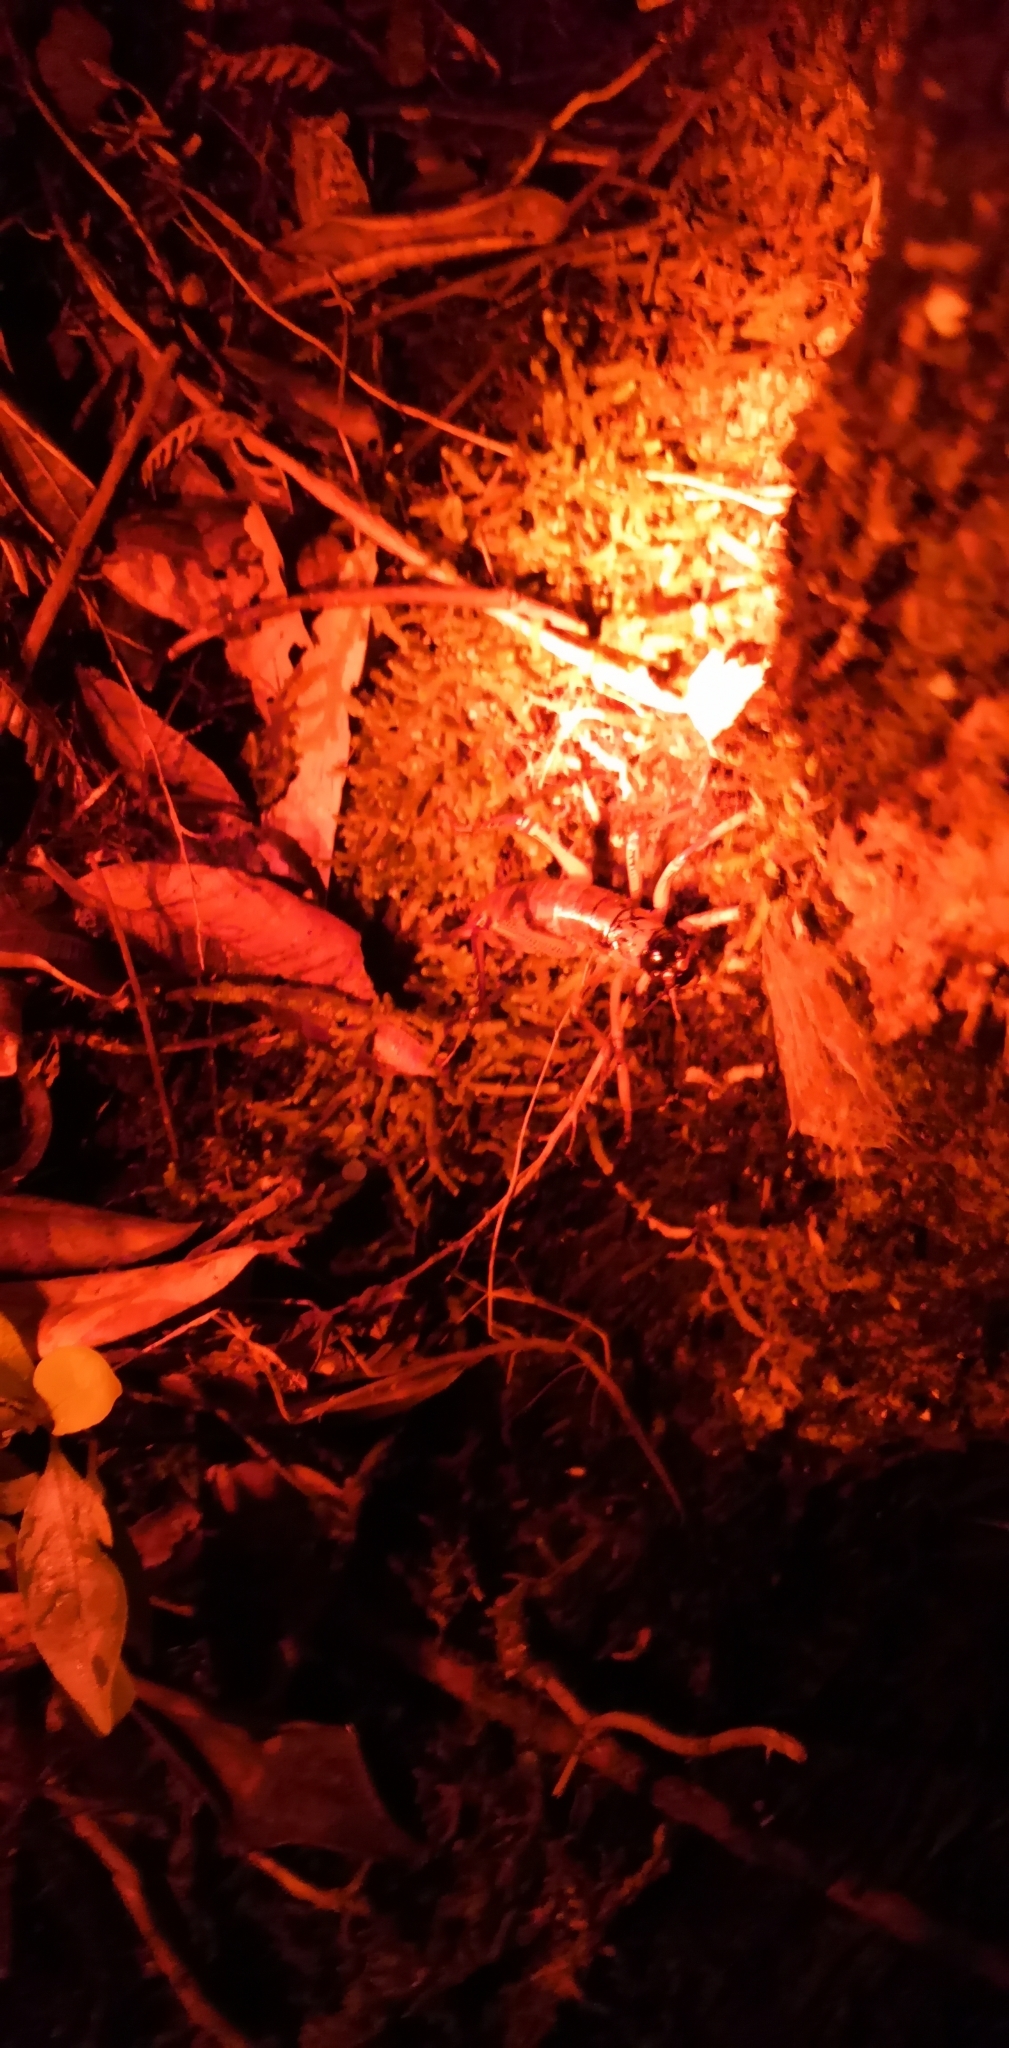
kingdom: Animalia
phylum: Arthropoda
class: Insecta
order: Orthoptera
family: Anostostomatidae
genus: Hemideina
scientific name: Hemideina thoracica
